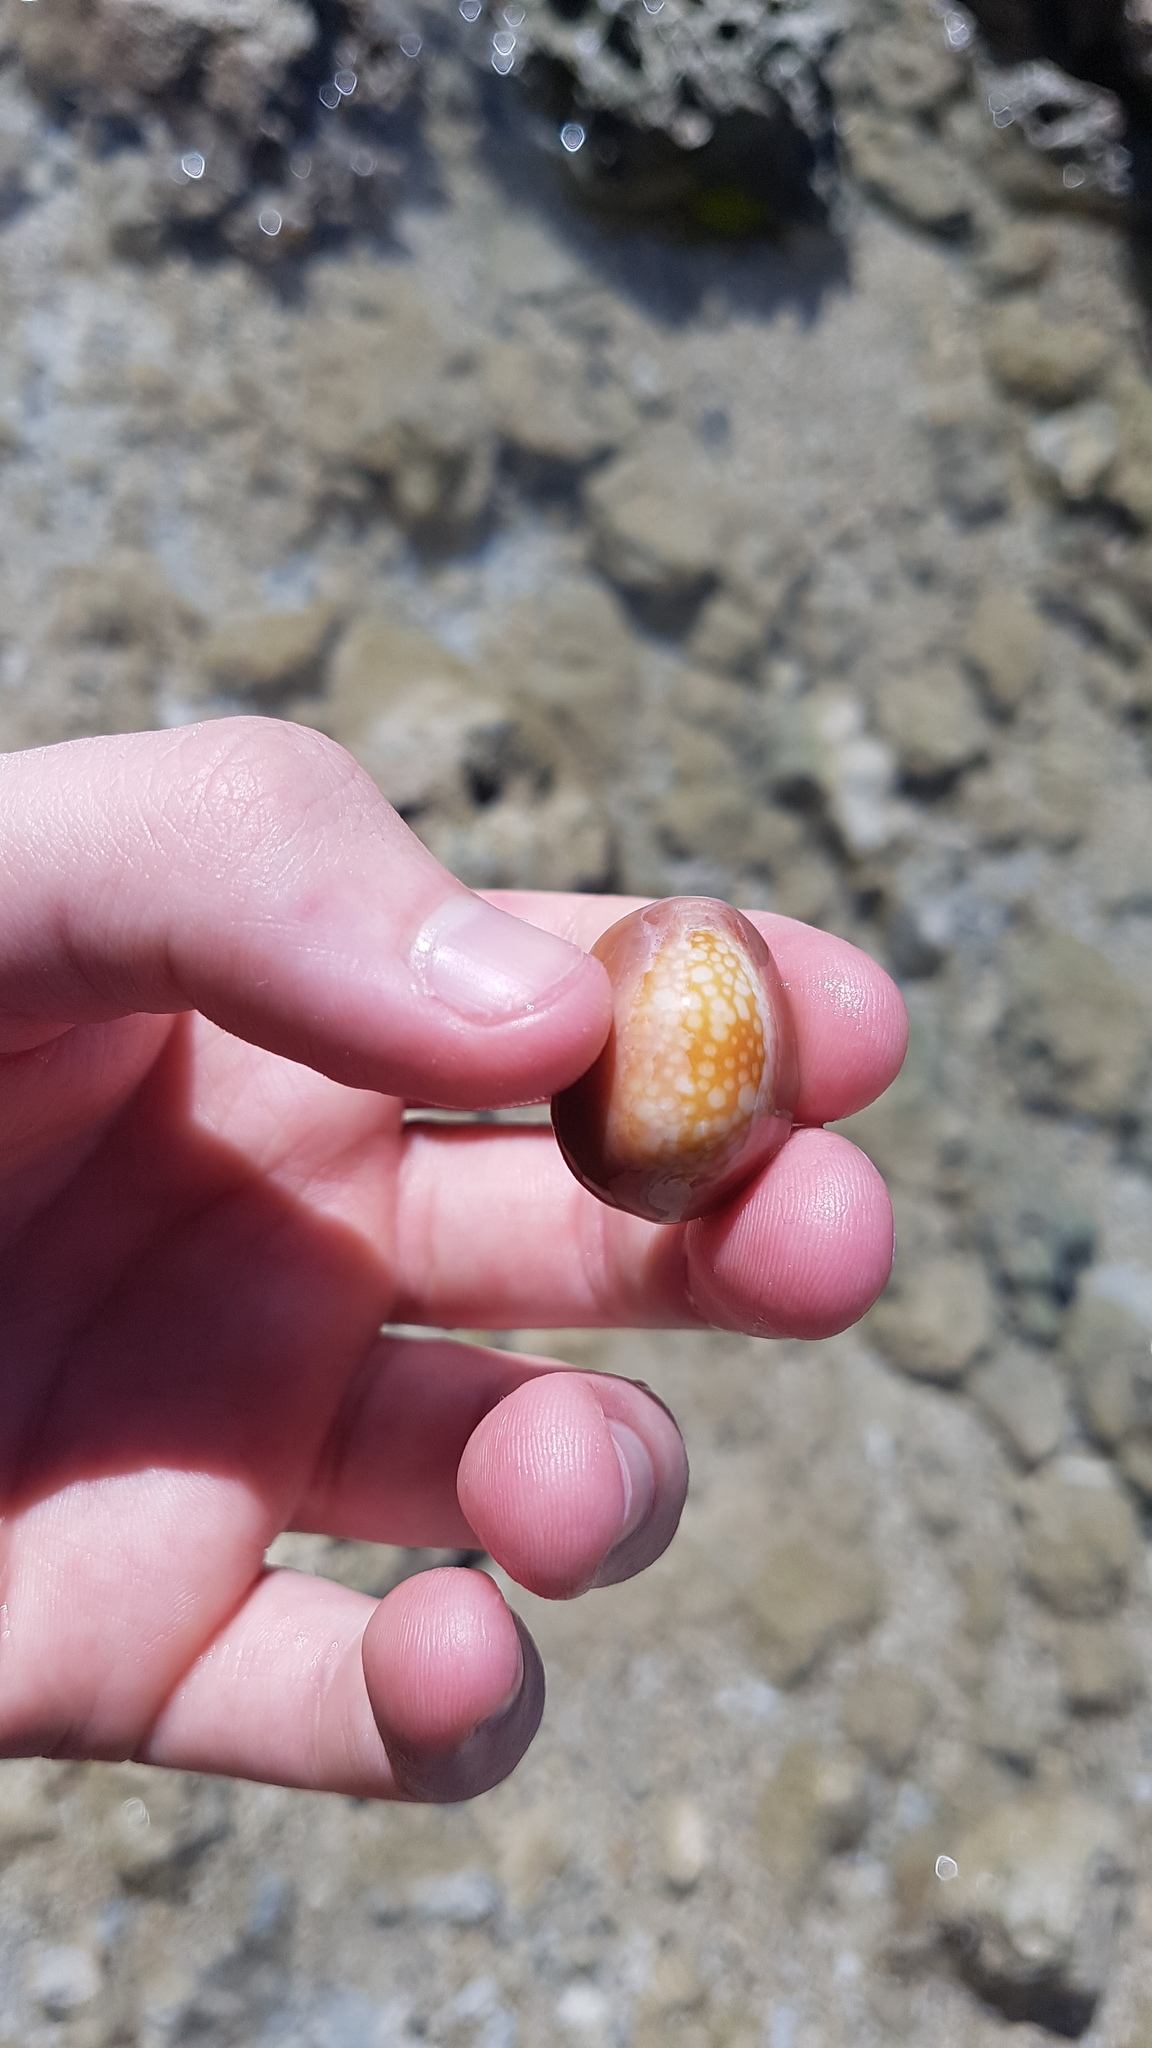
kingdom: Animalia
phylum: Mollusca
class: Gastropoda
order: Littorinimorpha
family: Cypraeidae
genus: Monetaria
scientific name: Monetaria caputophidii
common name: Snake's head cowry
